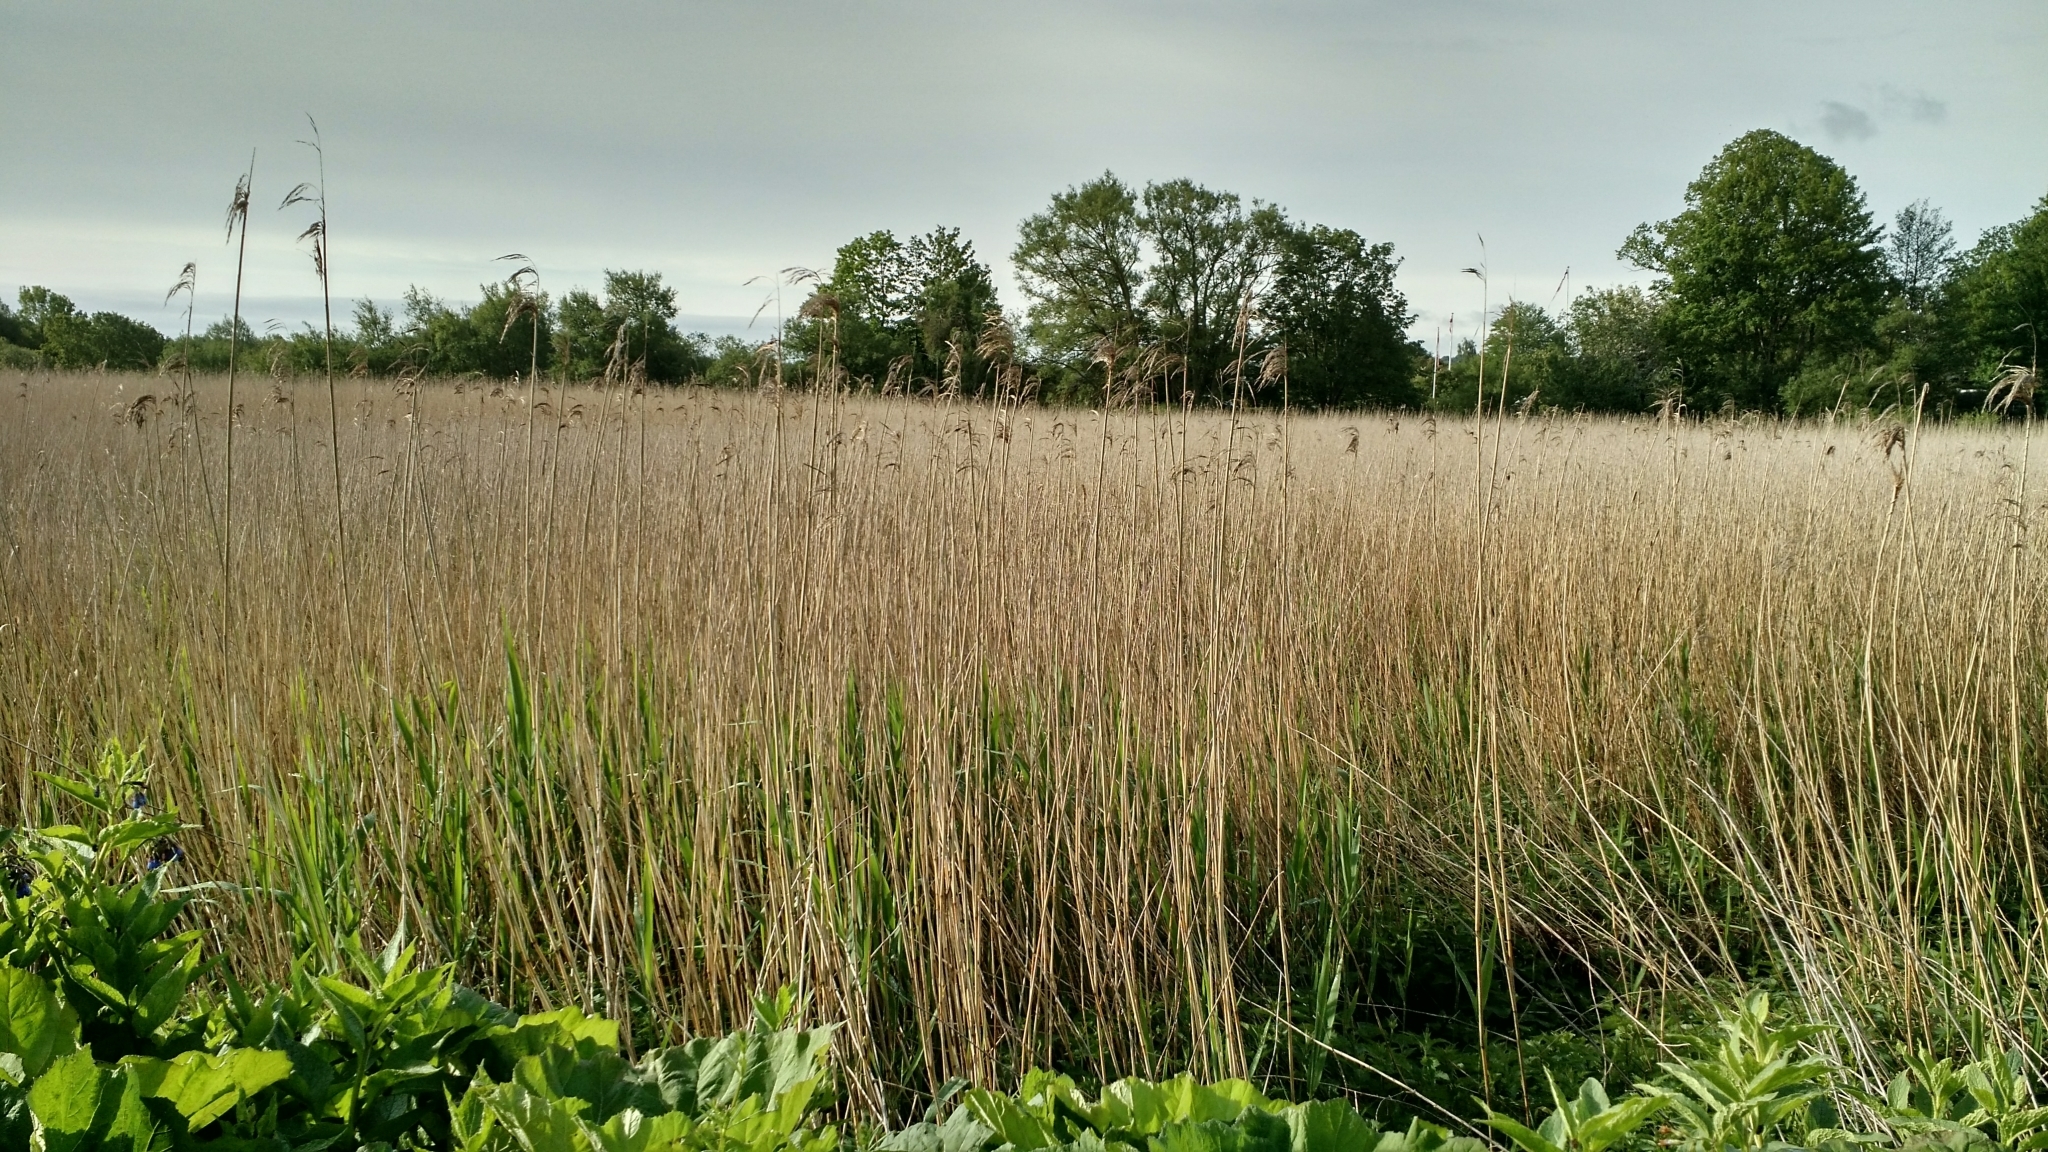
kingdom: Plantae
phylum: Tracheophyta
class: Liliopsida
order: Poales
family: Poaceae
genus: Phragmites
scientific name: Phragmites australis
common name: Common reed
